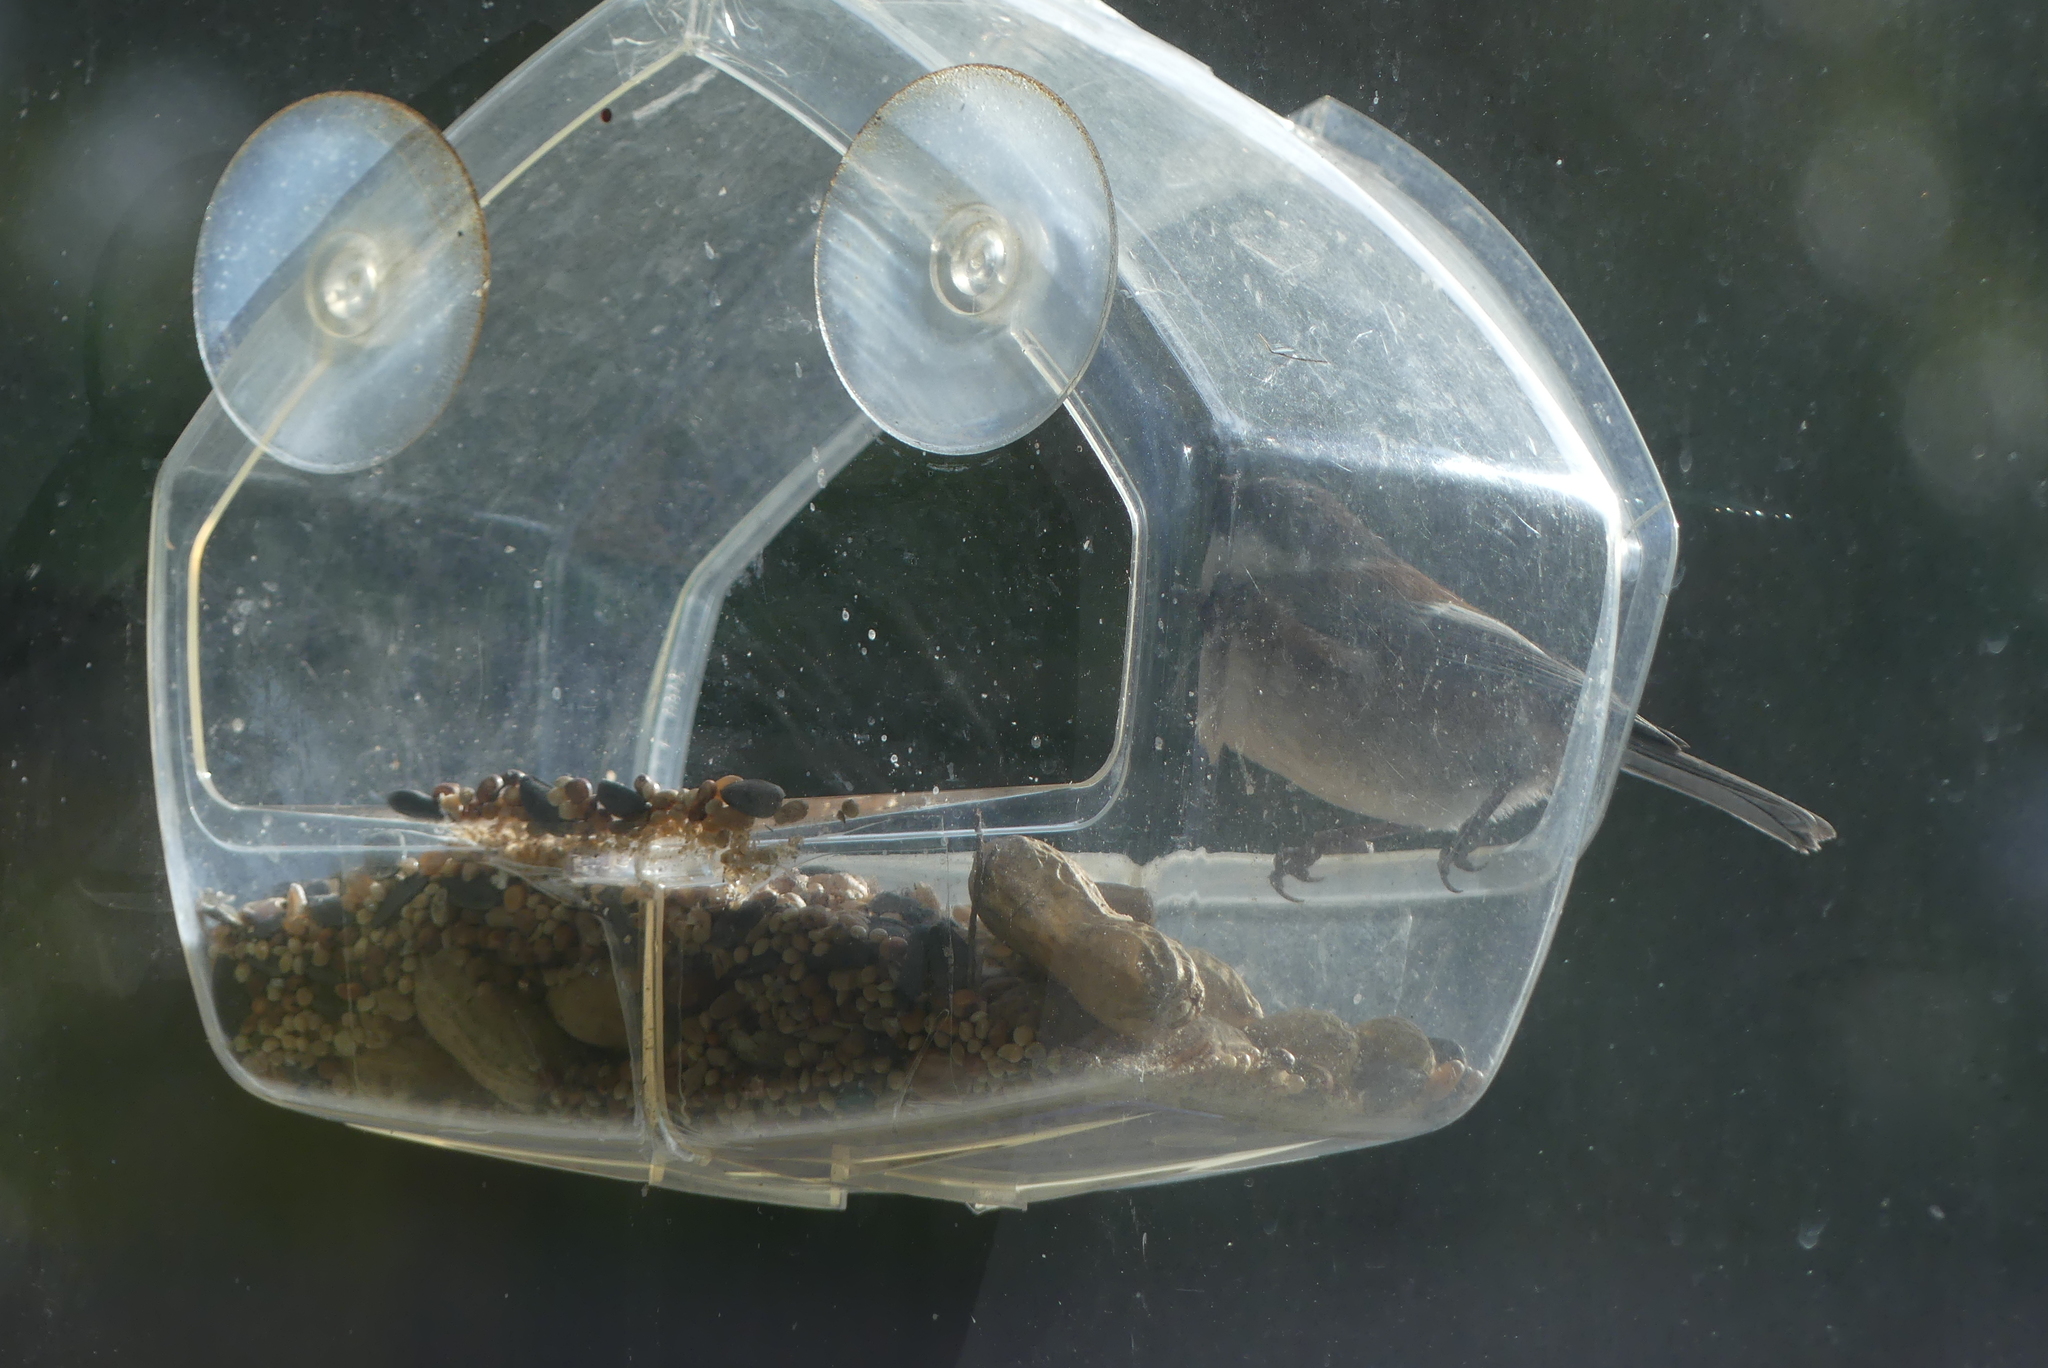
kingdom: Animalia
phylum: Chordata
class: Aves
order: Passeriformes
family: Paridae
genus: Poecile
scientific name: Poecile rufescens
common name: Chestnut-backed chickadee
